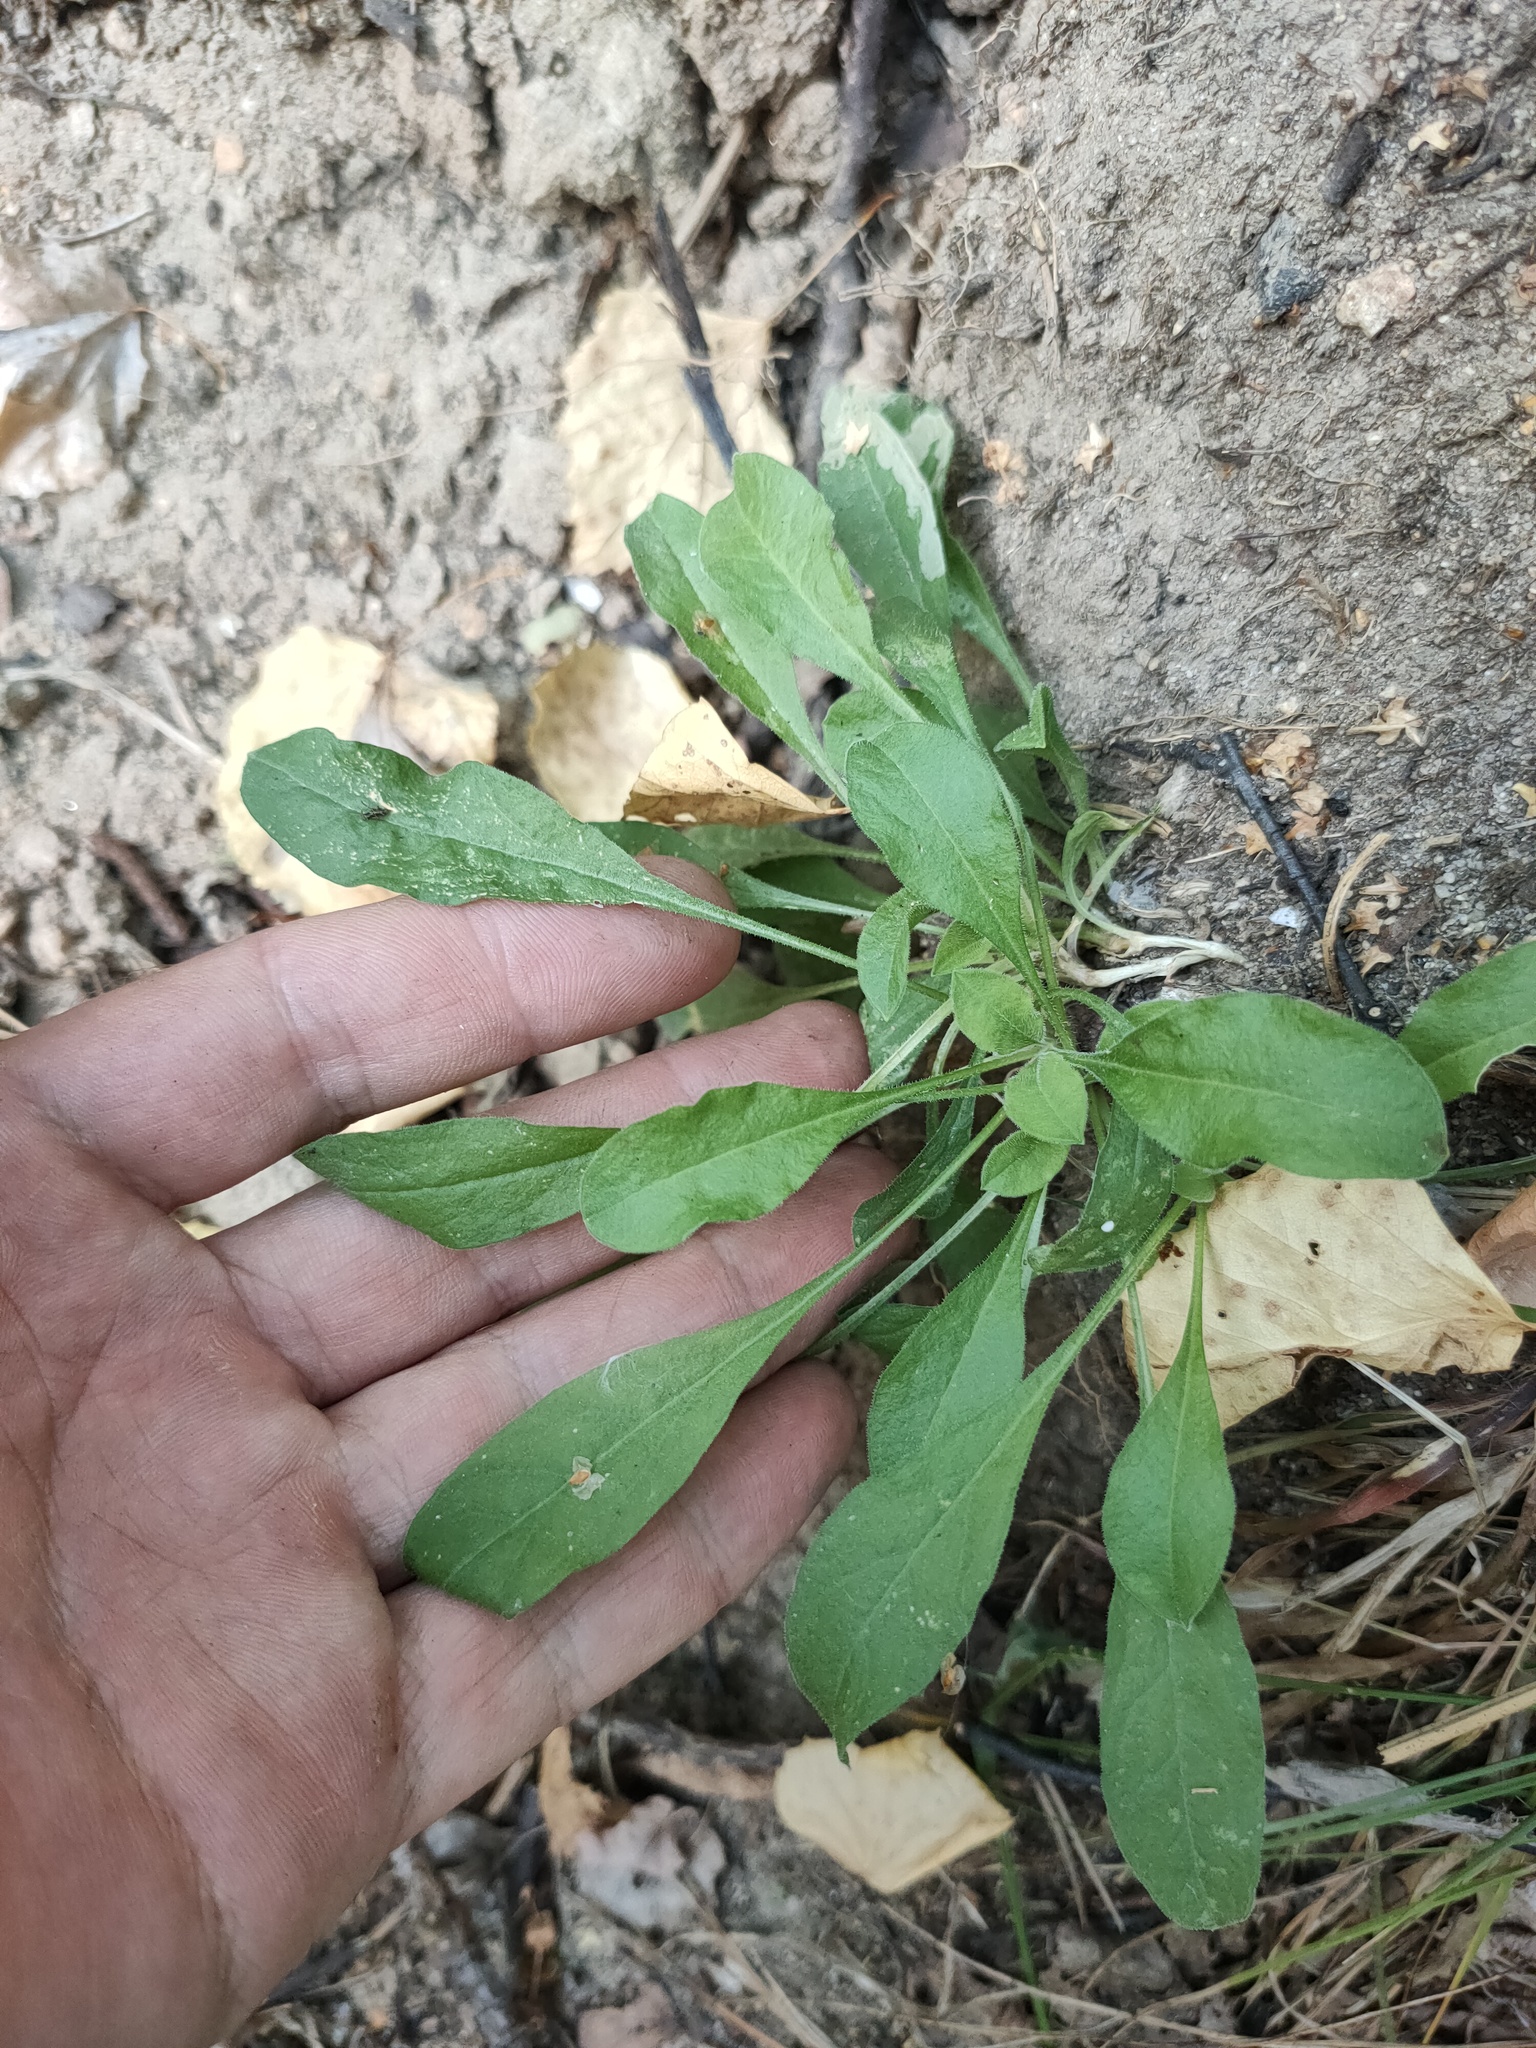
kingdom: Plantae
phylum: Tracheophyta
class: Magnoliopsida
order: Caryophyllales
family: Caryophyllaceae
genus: Silene
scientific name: Silene nutans
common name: Nottingham catchfly
